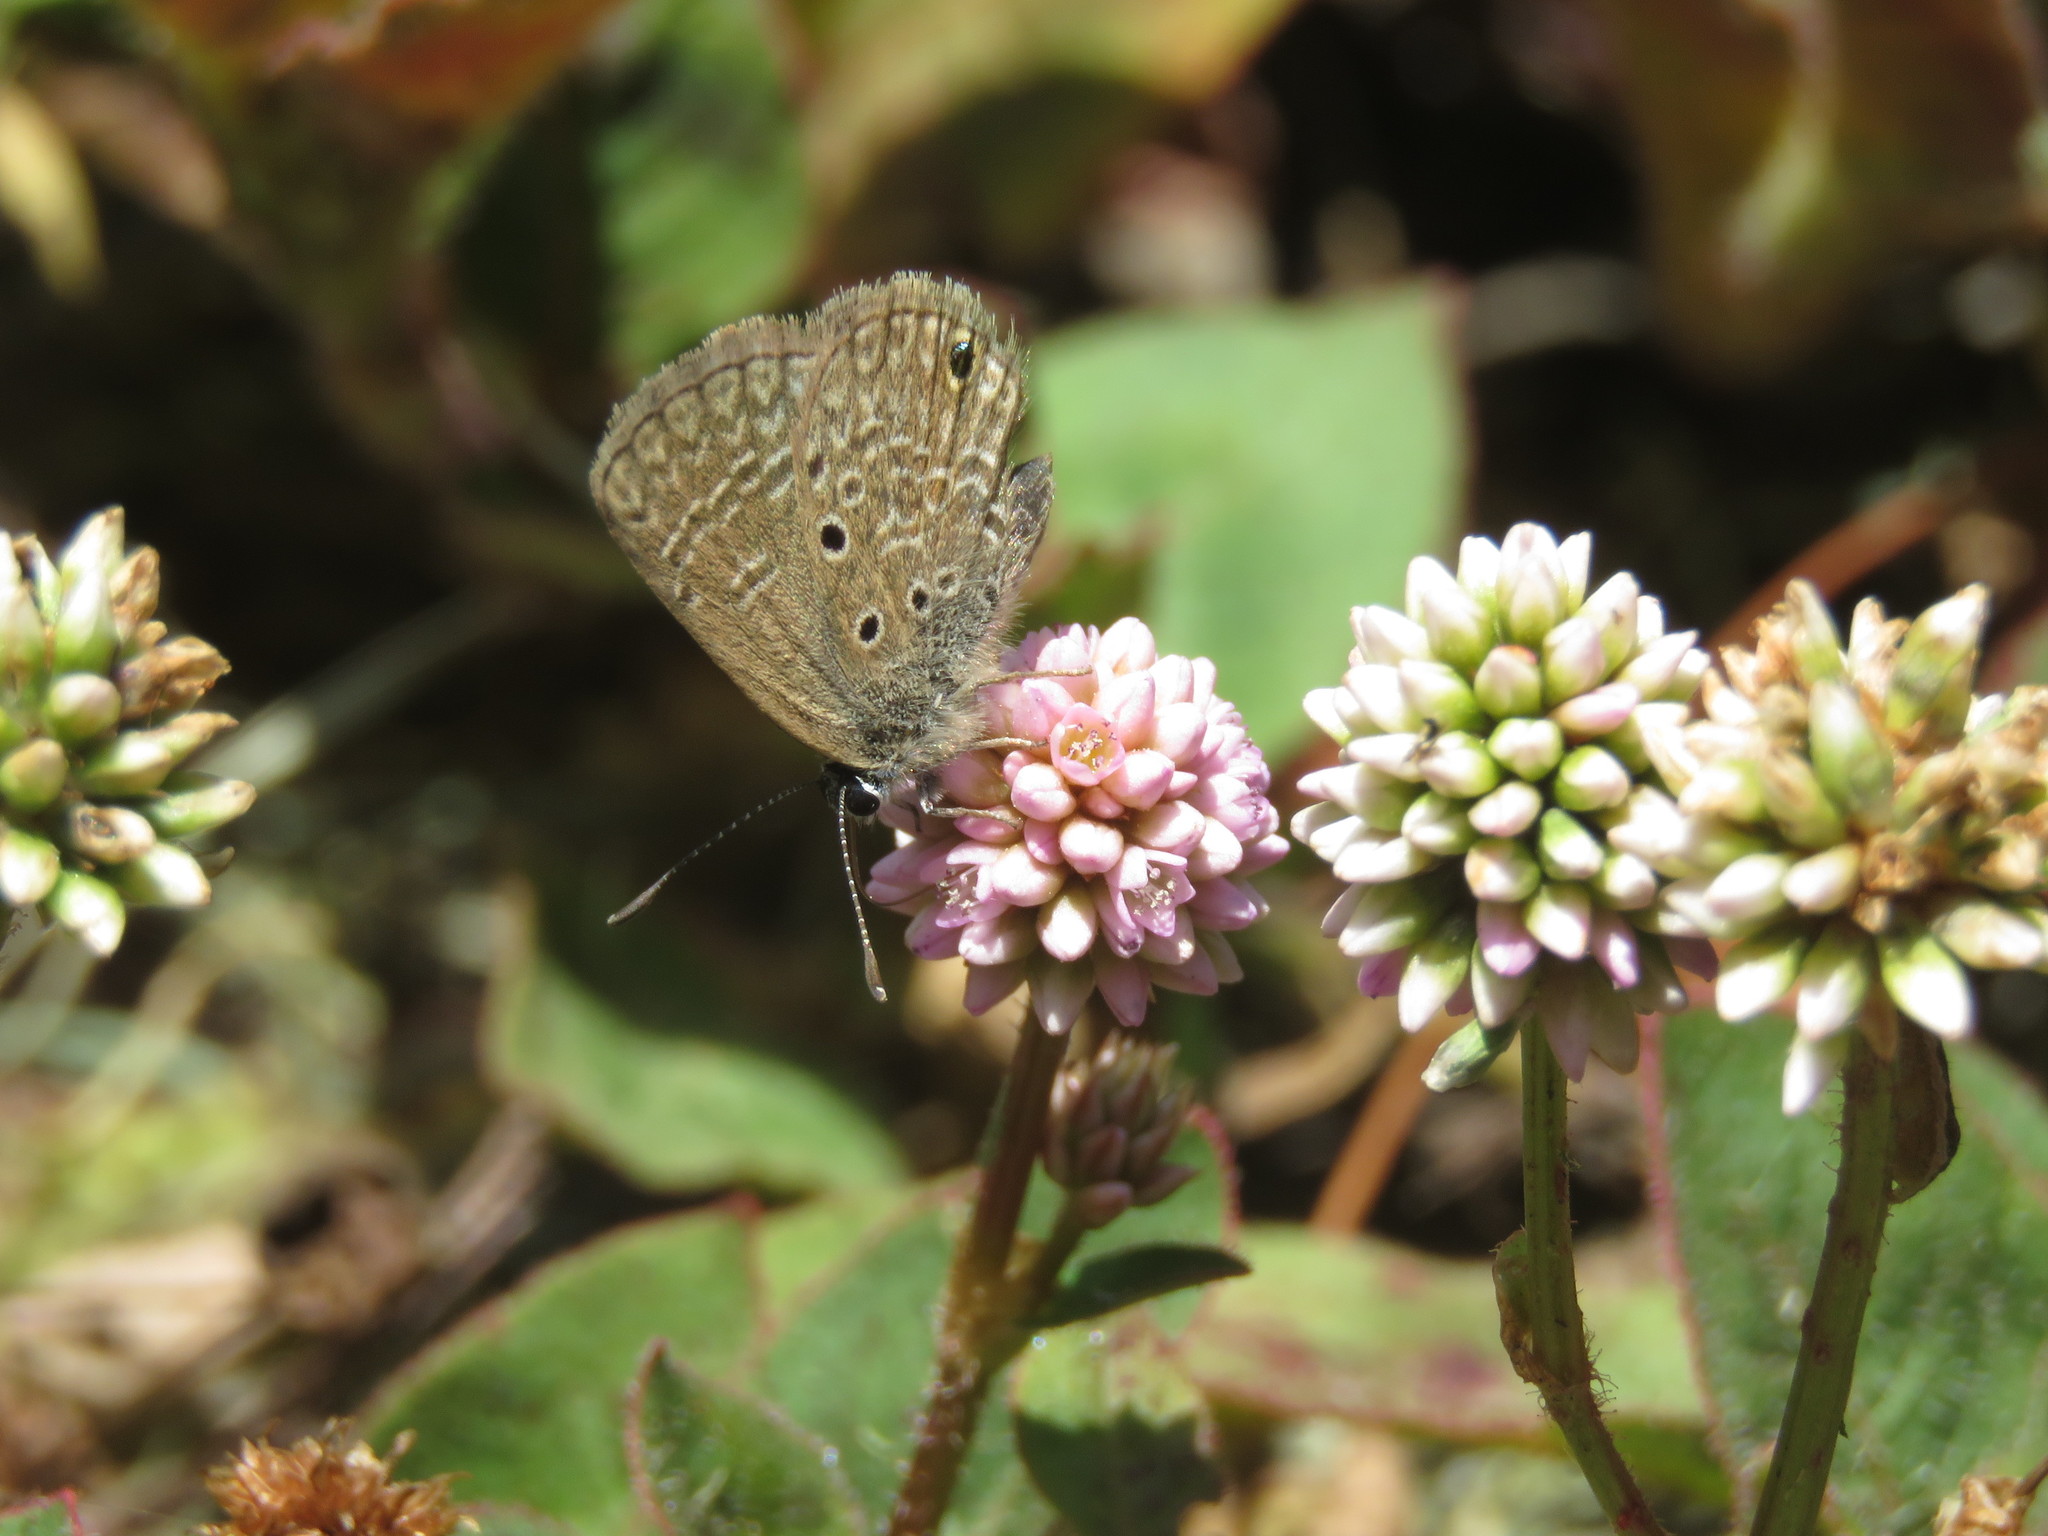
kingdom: Plantae
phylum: Tracheophyta
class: Magnoliopsida
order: Caryophyllales
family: Polygonaceae
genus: Persicaria
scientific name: Persicaria capitata
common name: Pinkhead smartweed
